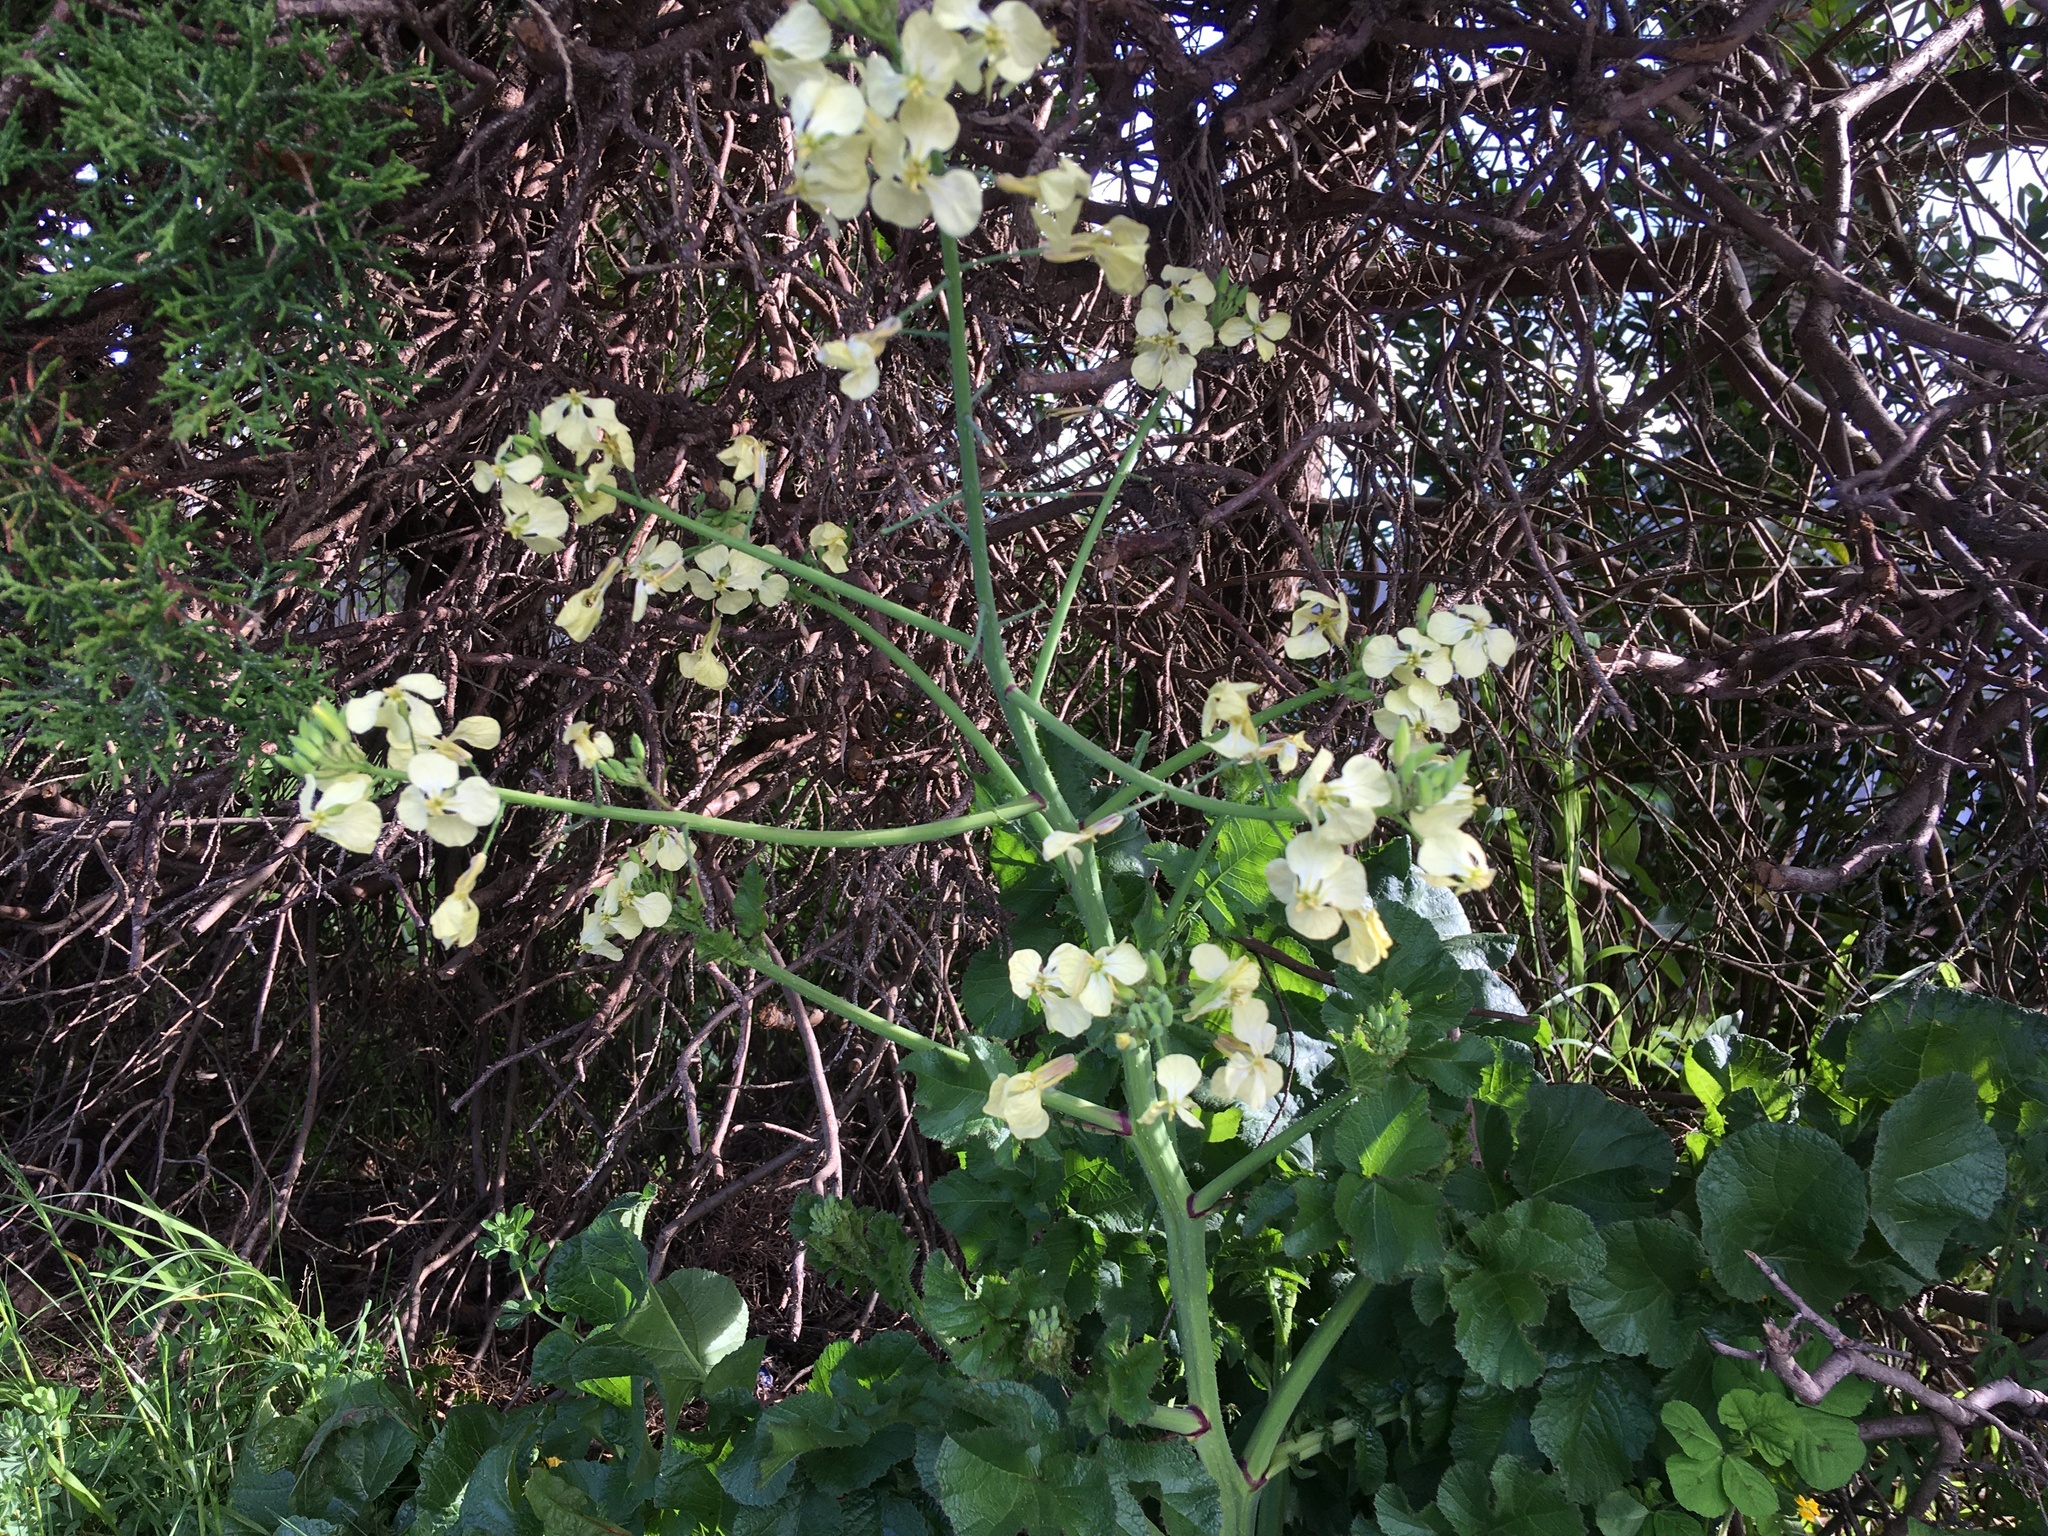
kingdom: Plantae
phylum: Tracheophyta
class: Magnoliopsida
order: Brassicales
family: Brassicaceae
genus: Raphanus
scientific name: Raphanus raphanistrum
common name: Wild radish
